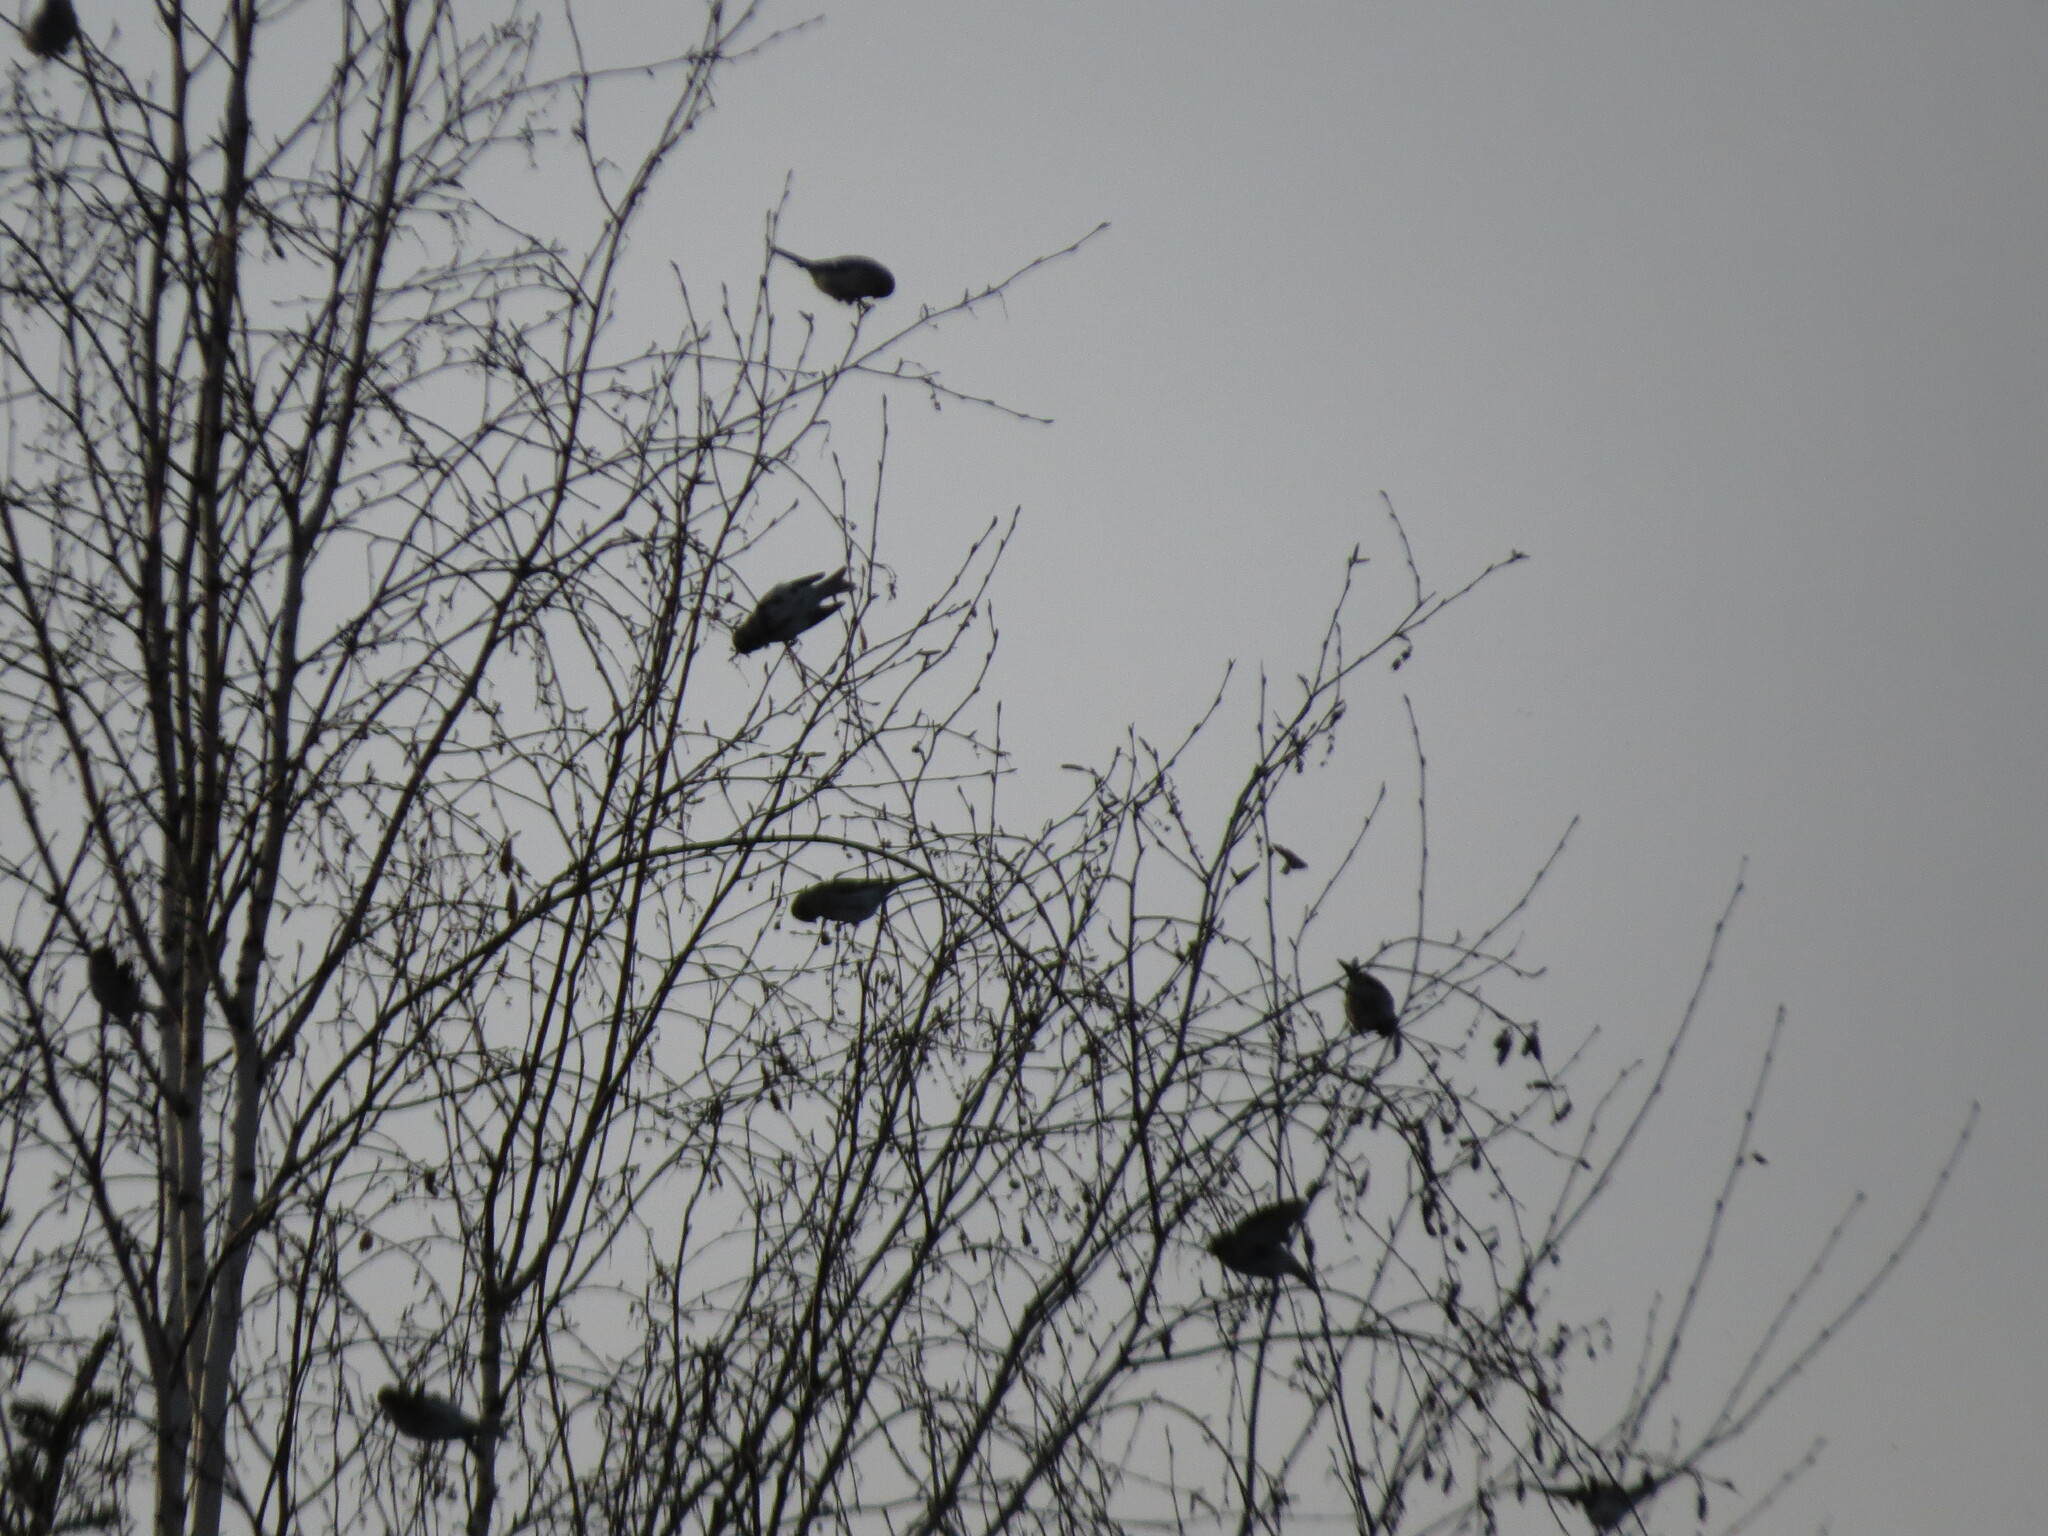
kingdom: Animalia
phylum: Chordata
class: Aves
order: Passeriformes
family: Fringillidae
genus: Acanthis
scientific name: Acanthis flammea
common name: Common redpoll
